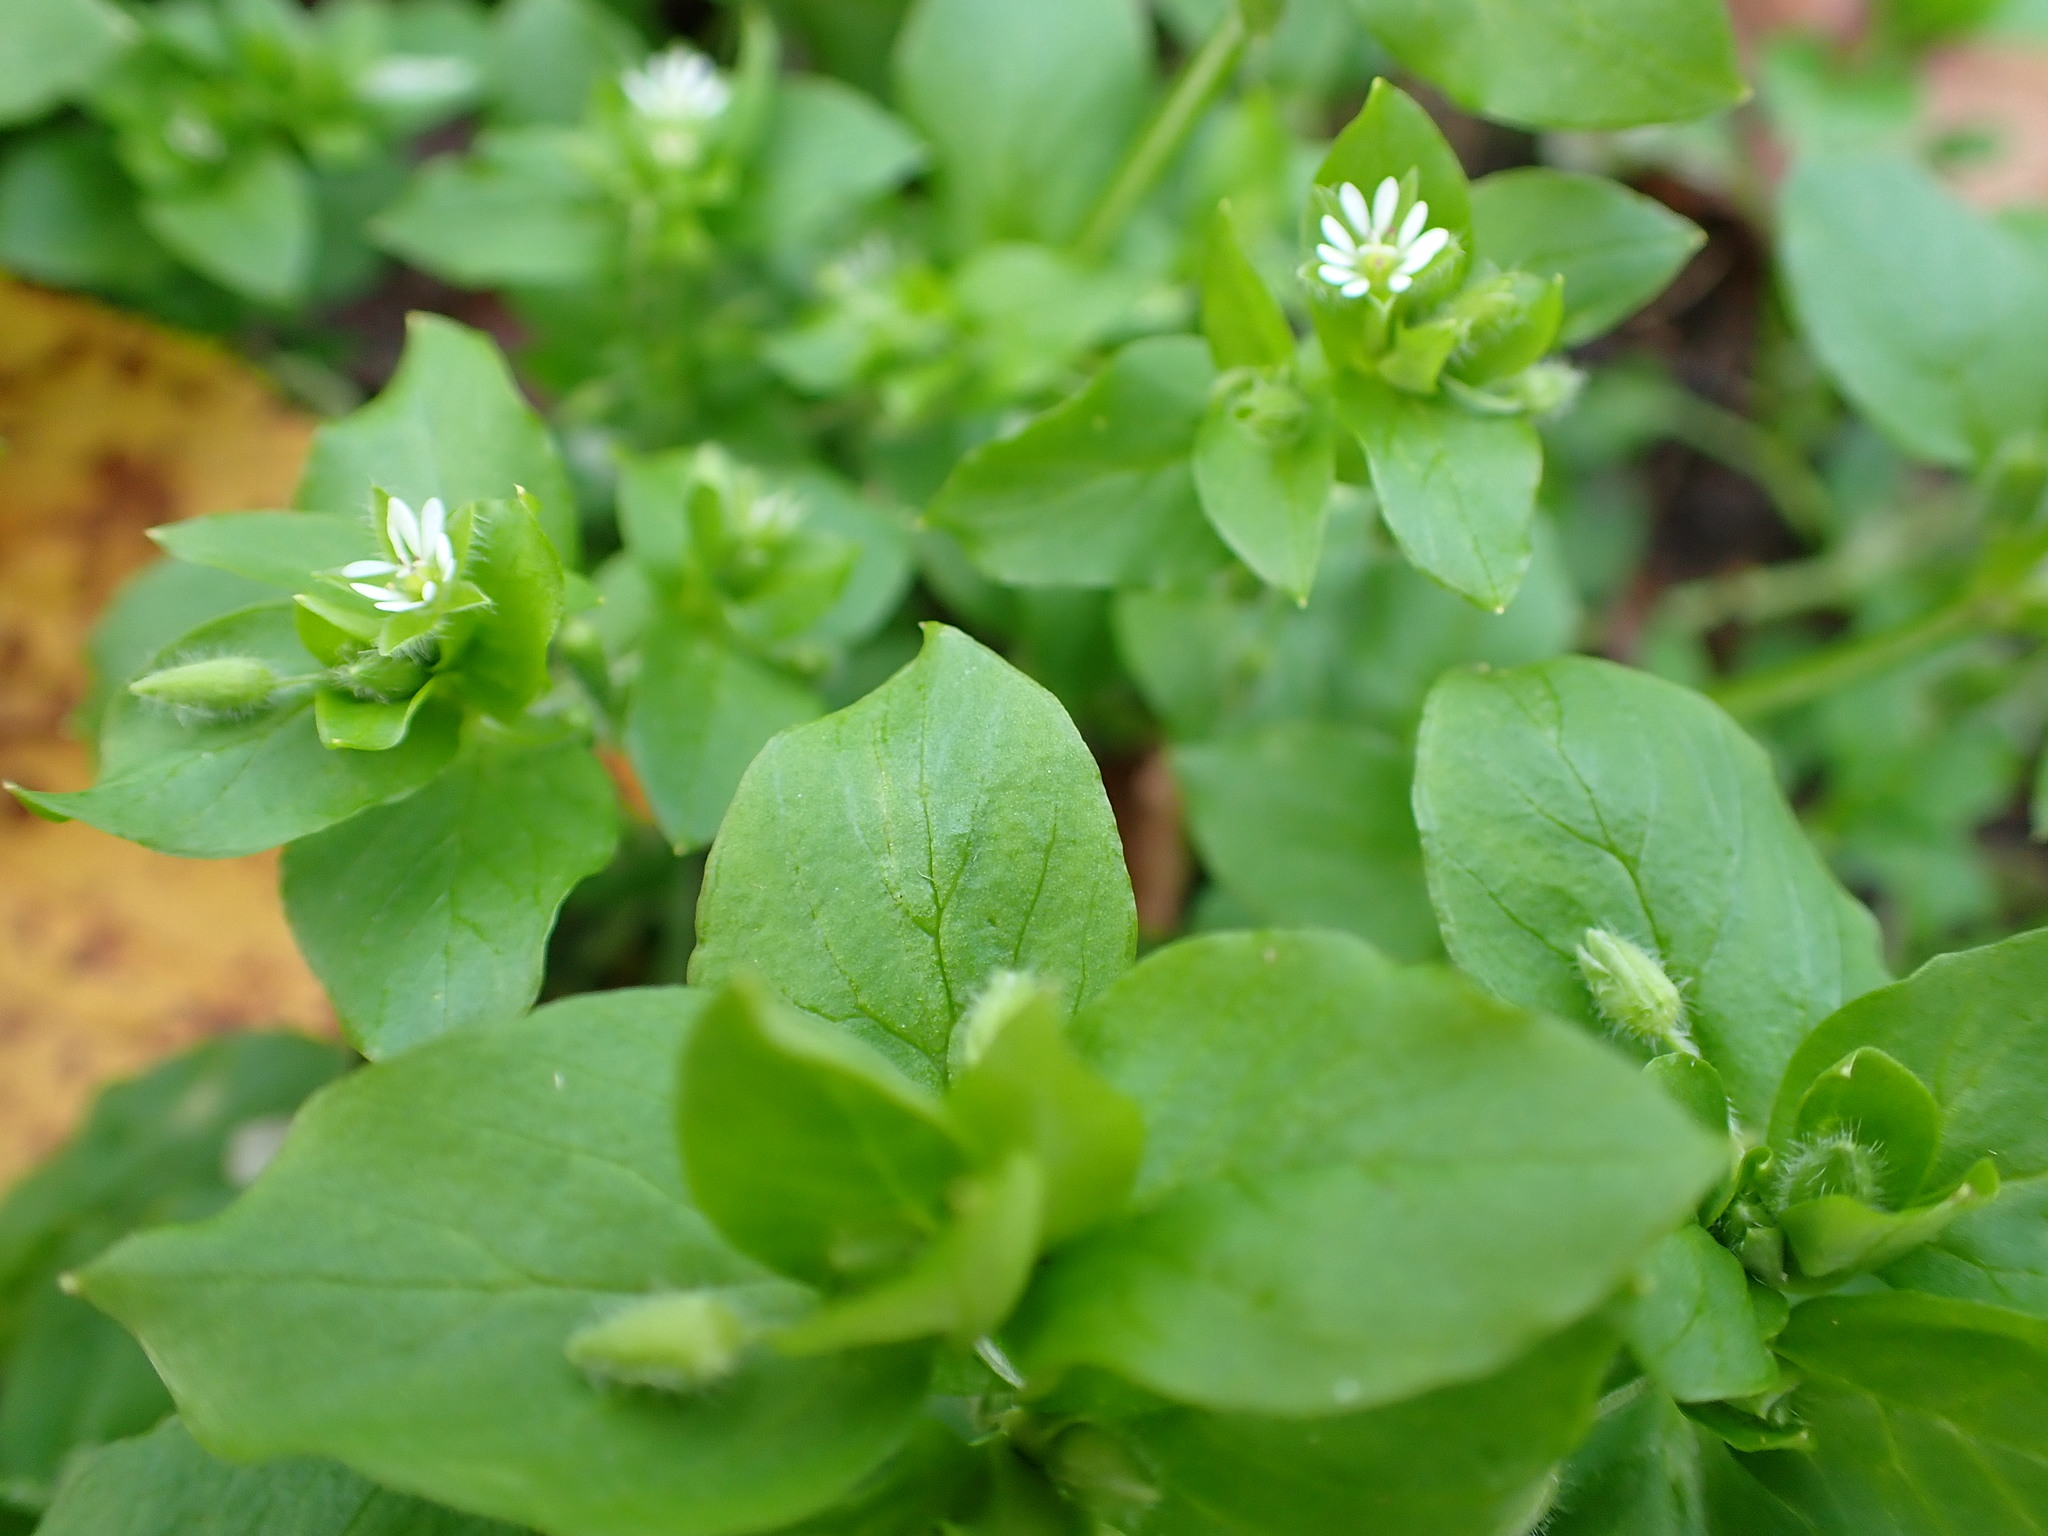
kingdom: Plantae
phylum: Tracheophyta
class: Magnoliopsida
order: Caryophyllales
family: Caryophyllaceae
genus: Stellaria
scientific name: Stellaria media
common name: Common chickweed
